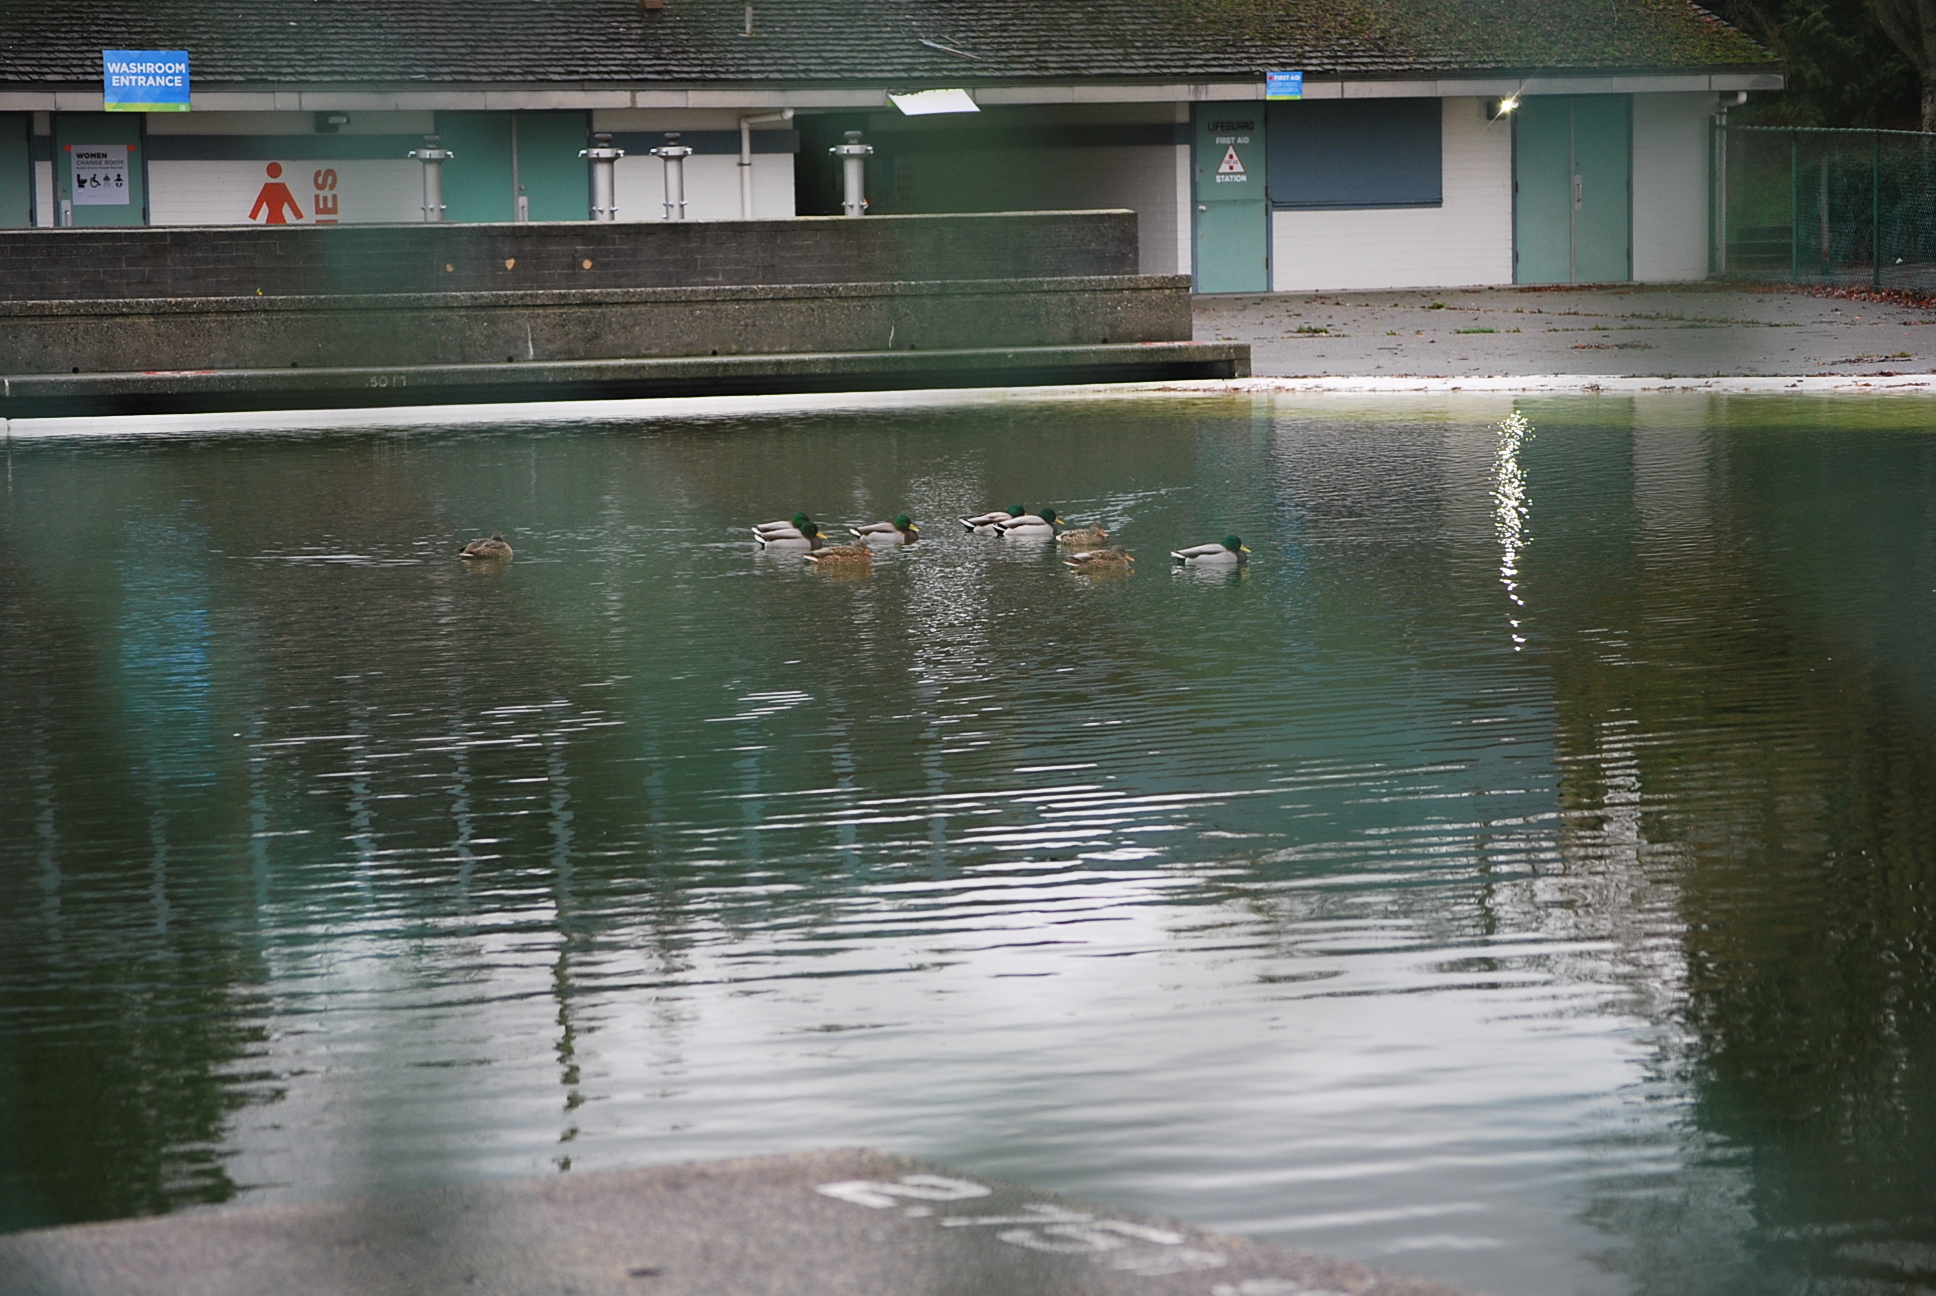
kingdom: Animalia
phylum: Chordata
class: Aves
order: Anseriformes
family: Anatidae
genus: Anas
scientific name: Anas platyrhynchos
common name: Mallard
